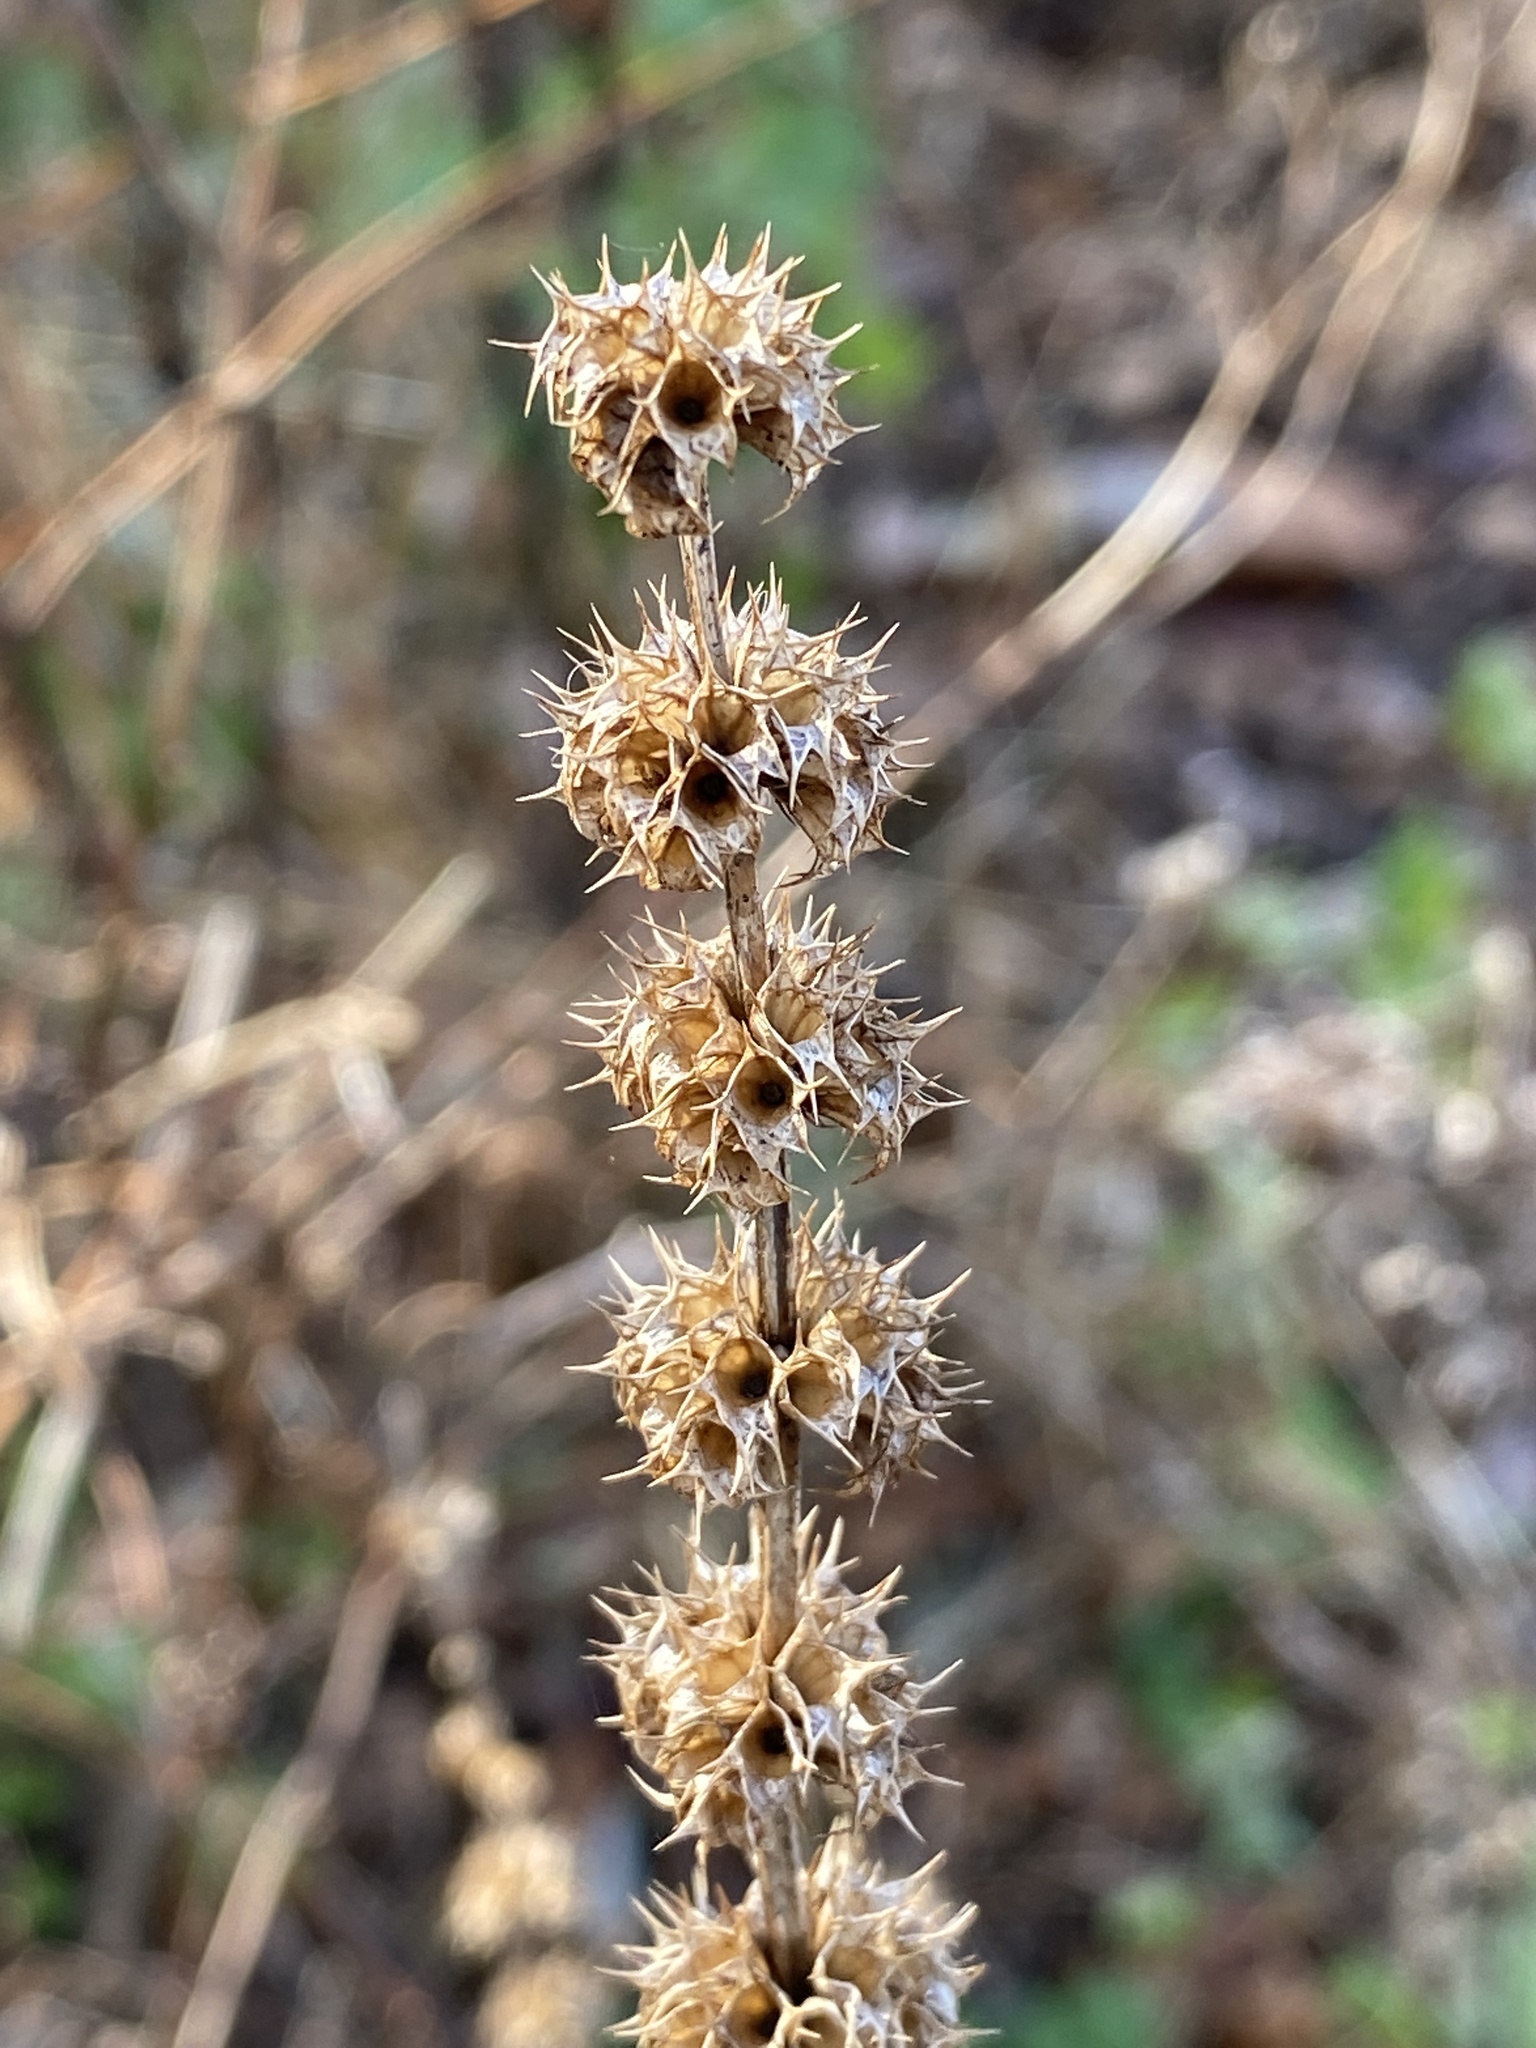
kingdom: Plantae
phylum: Tracheophyta
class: Magnoliopsida
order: Lamiales
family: Lamiaceae
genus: Leonurus
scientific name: Leonurus cardiaca
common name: Motherwort
